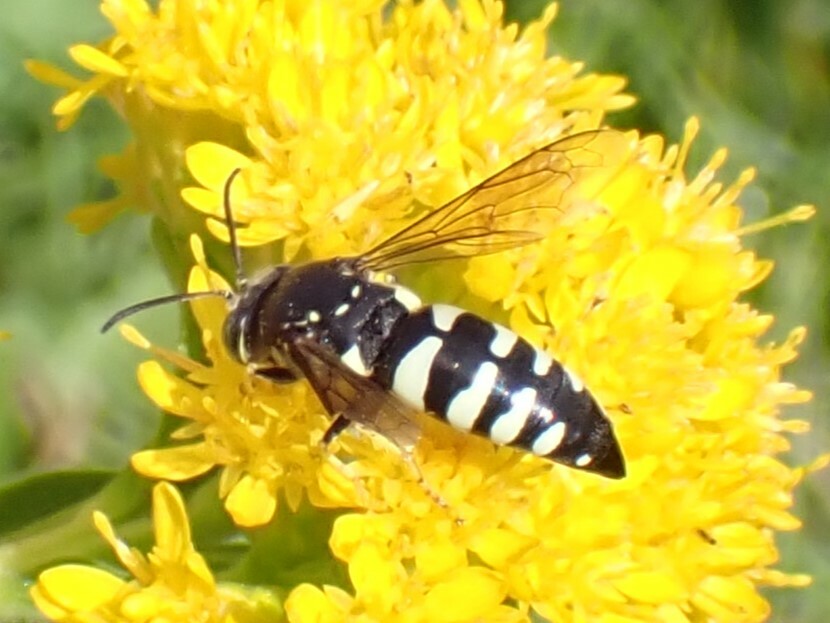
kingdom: Animalia
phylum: Arthropoda
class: Insecta
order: Hymenoptera
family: Crabronidae
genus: Bicyrtes
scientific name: Bicyrtes quadrifasciatus
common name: Four-banded stink bug hunter wasp
